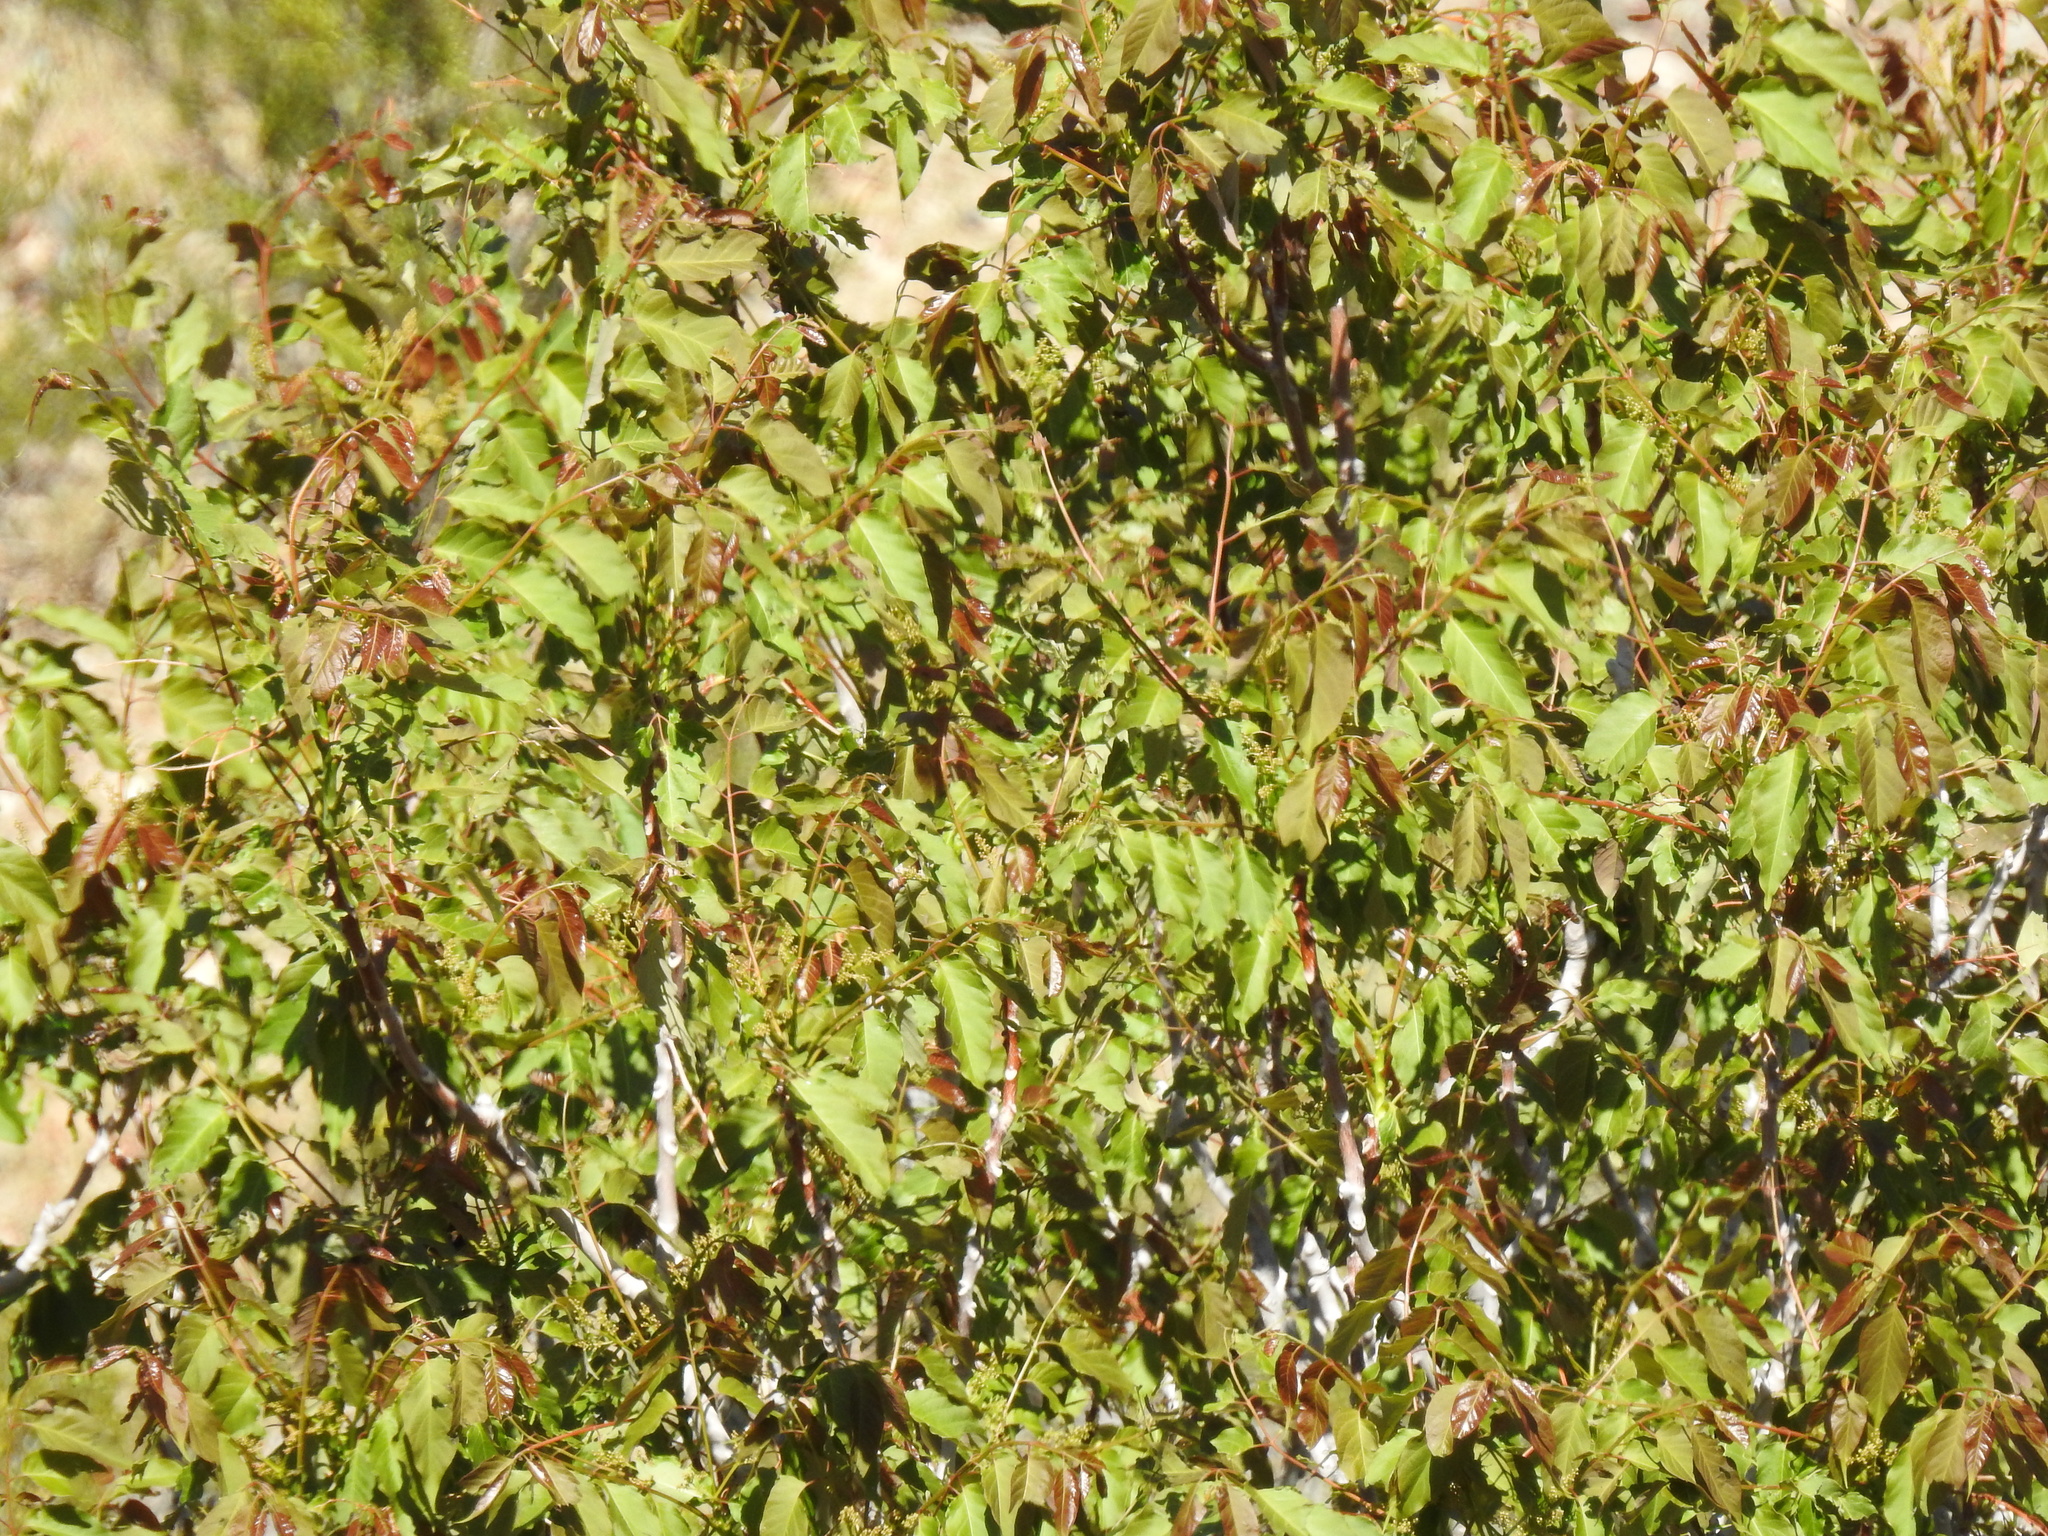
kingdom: Plantae
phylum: Tracheophyta
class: Magnoliopsida
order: Sapindales
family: Sapindaceae
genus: Ungnadia
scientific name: Ungnadia speciosa
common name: Texas-buckeye
